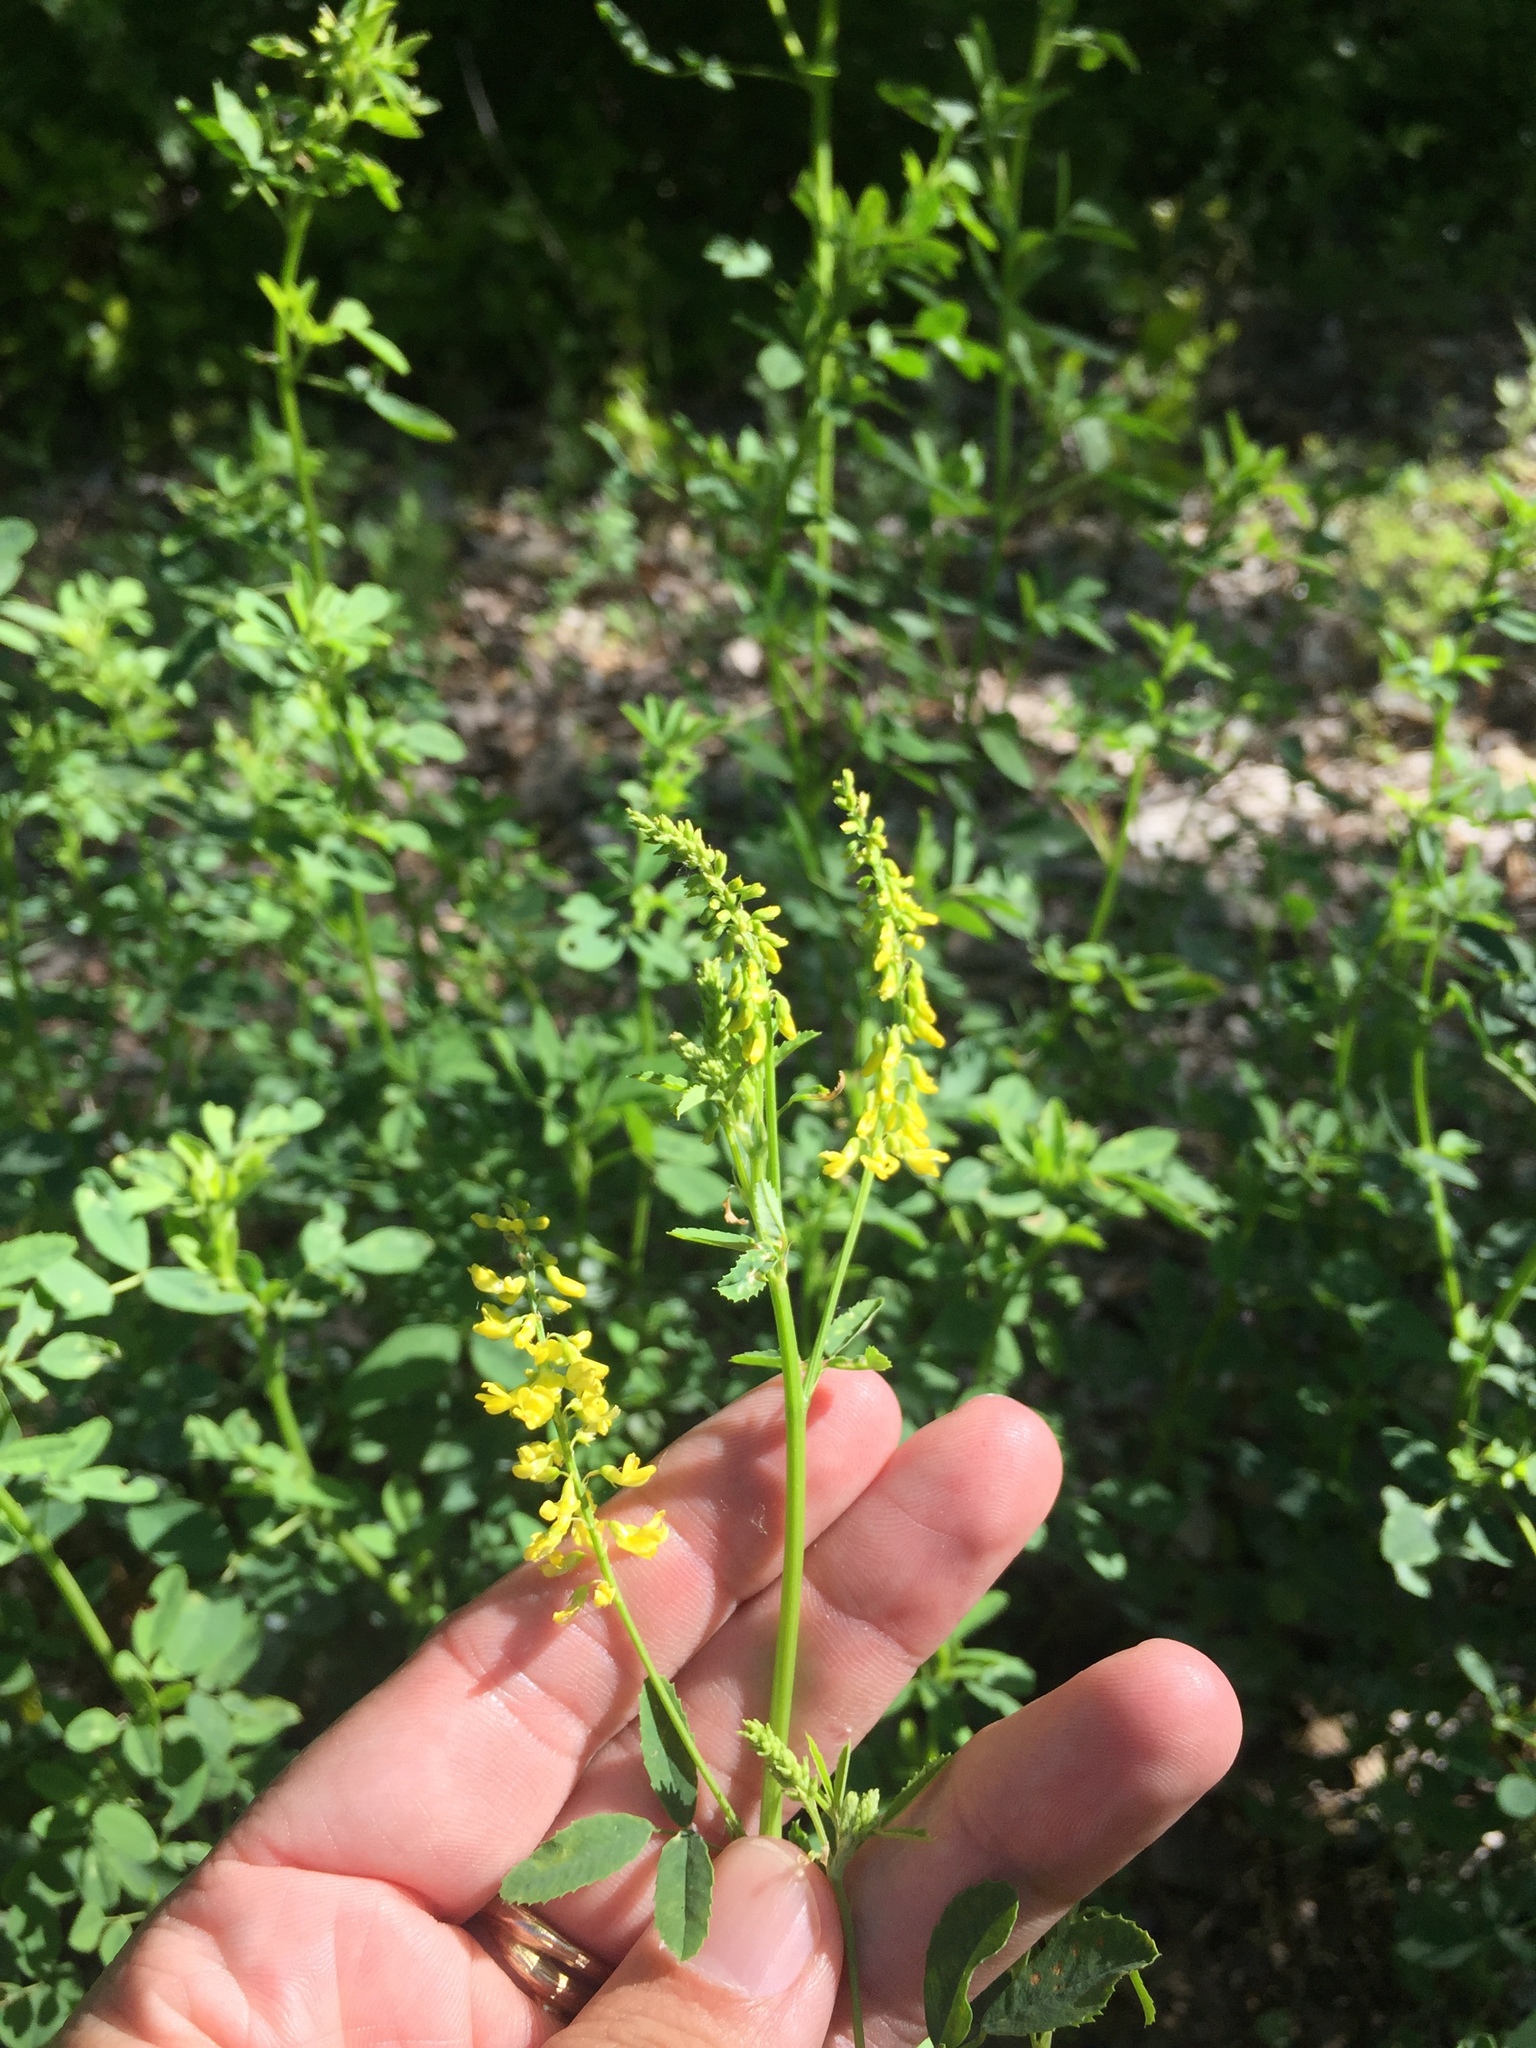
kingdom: Plantae
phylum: Tracheophyta
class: Magnoliopsida
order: Fabales
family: Fabaceae
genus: Melilotus
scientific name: Melilotus officinalis
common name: Sweetclover
